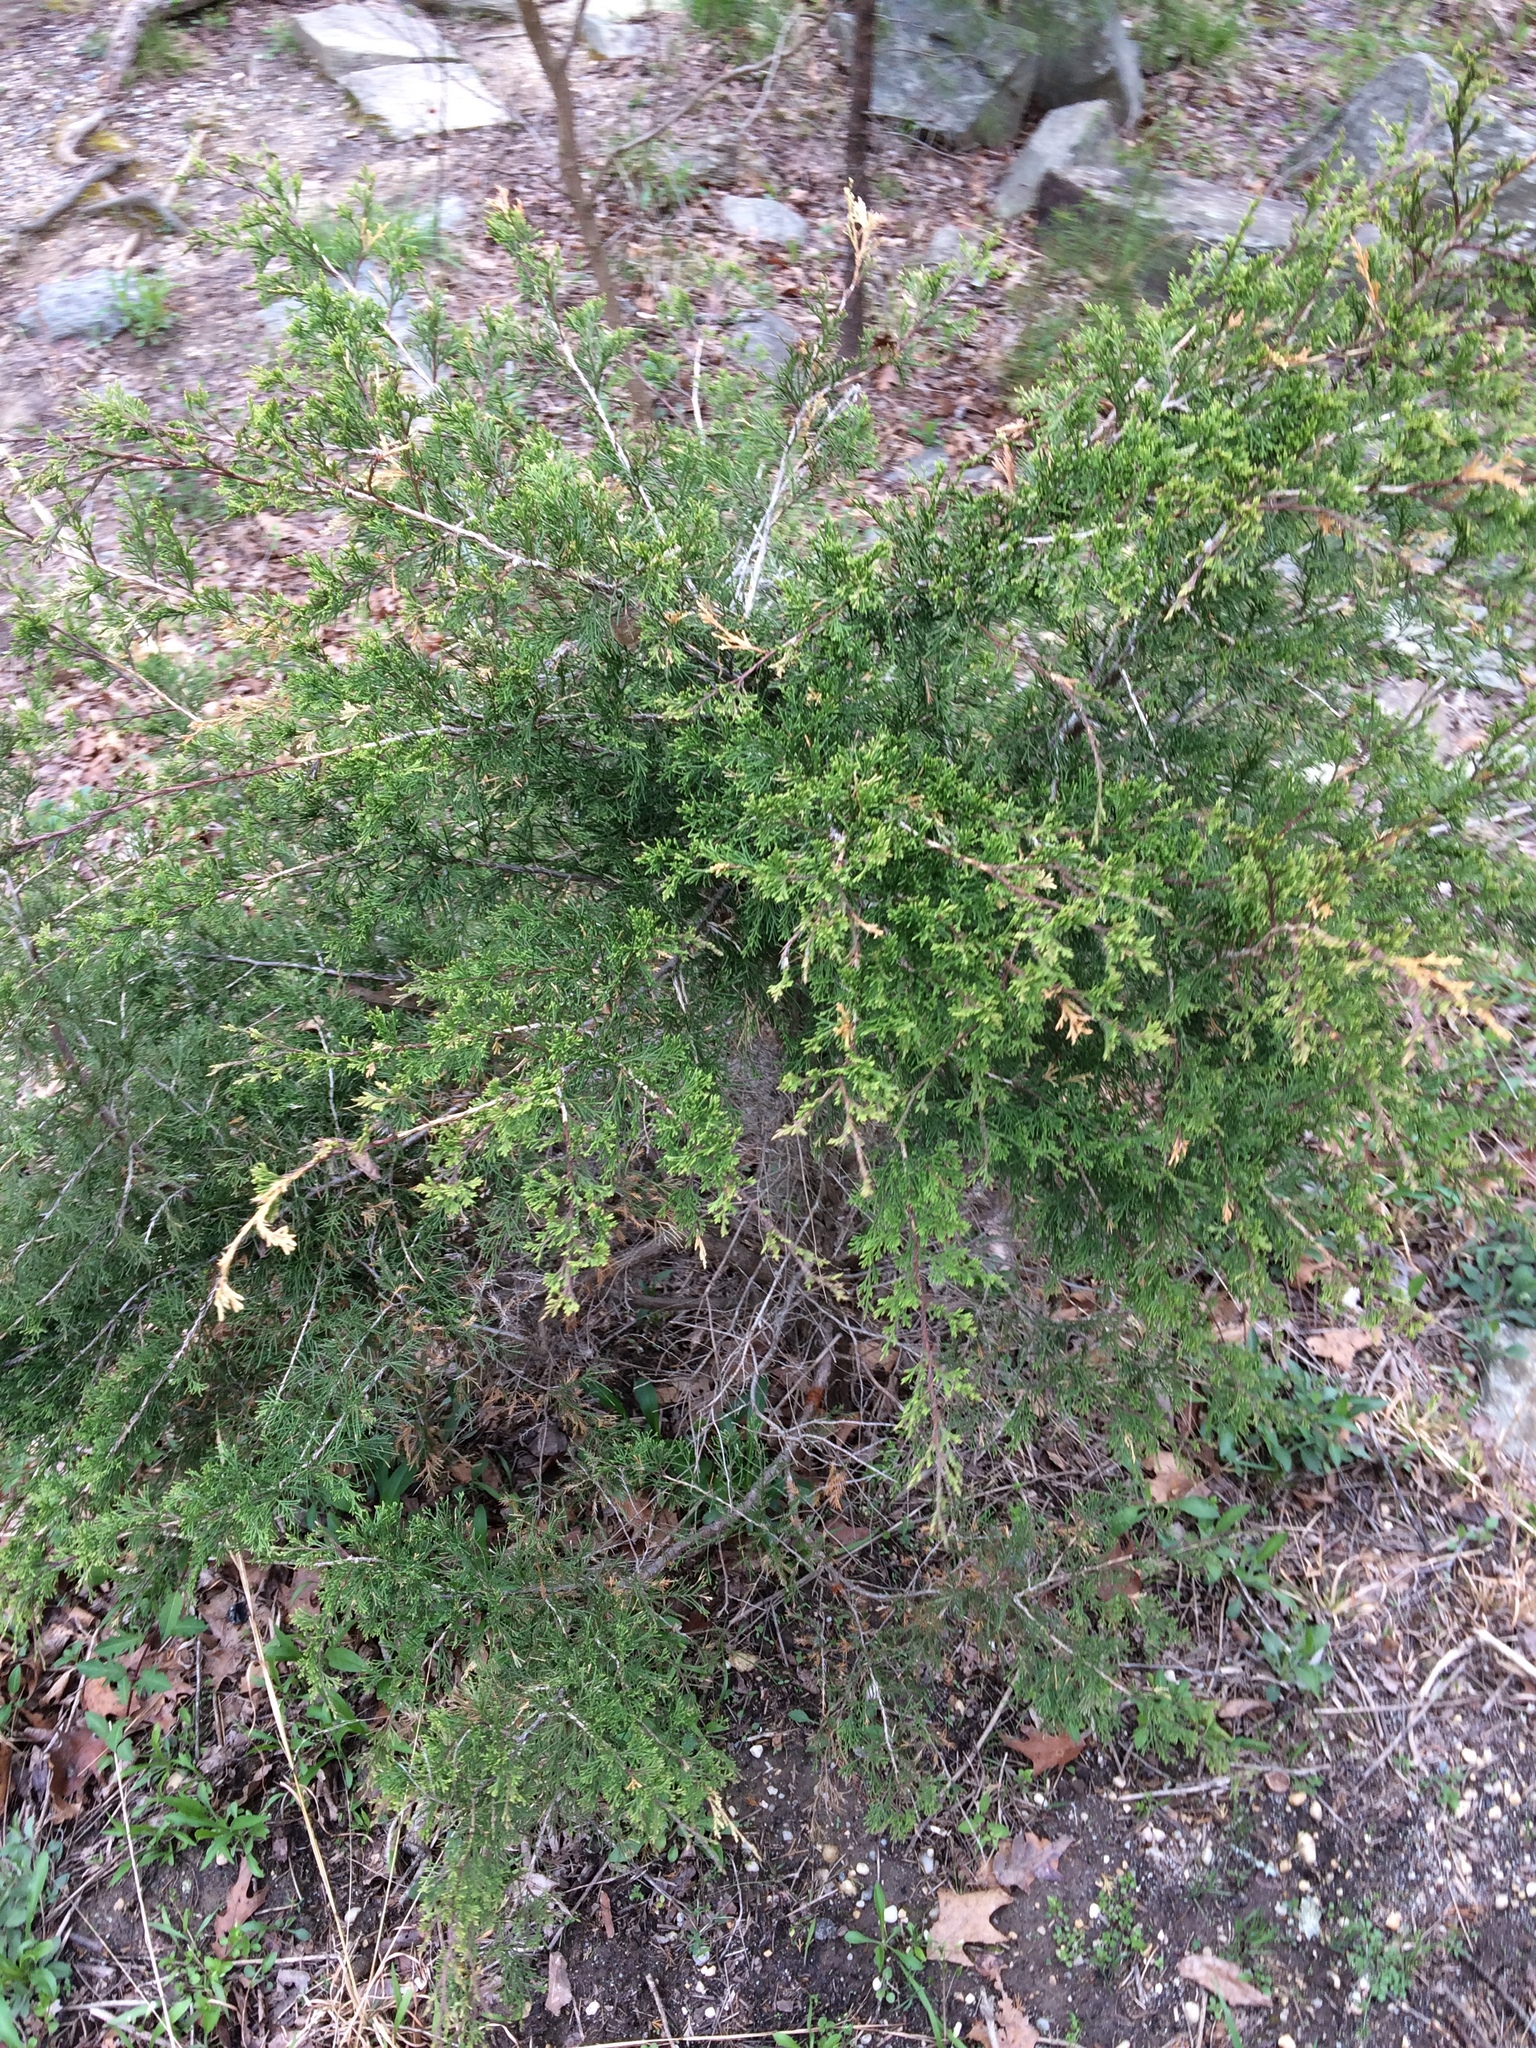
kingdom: Plantae
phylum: Tracheophyta
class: Pinopsida
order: Pinales
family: Cupressaceae
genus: Juniperus
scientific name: Juniperus virginiana
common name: Red juniper
